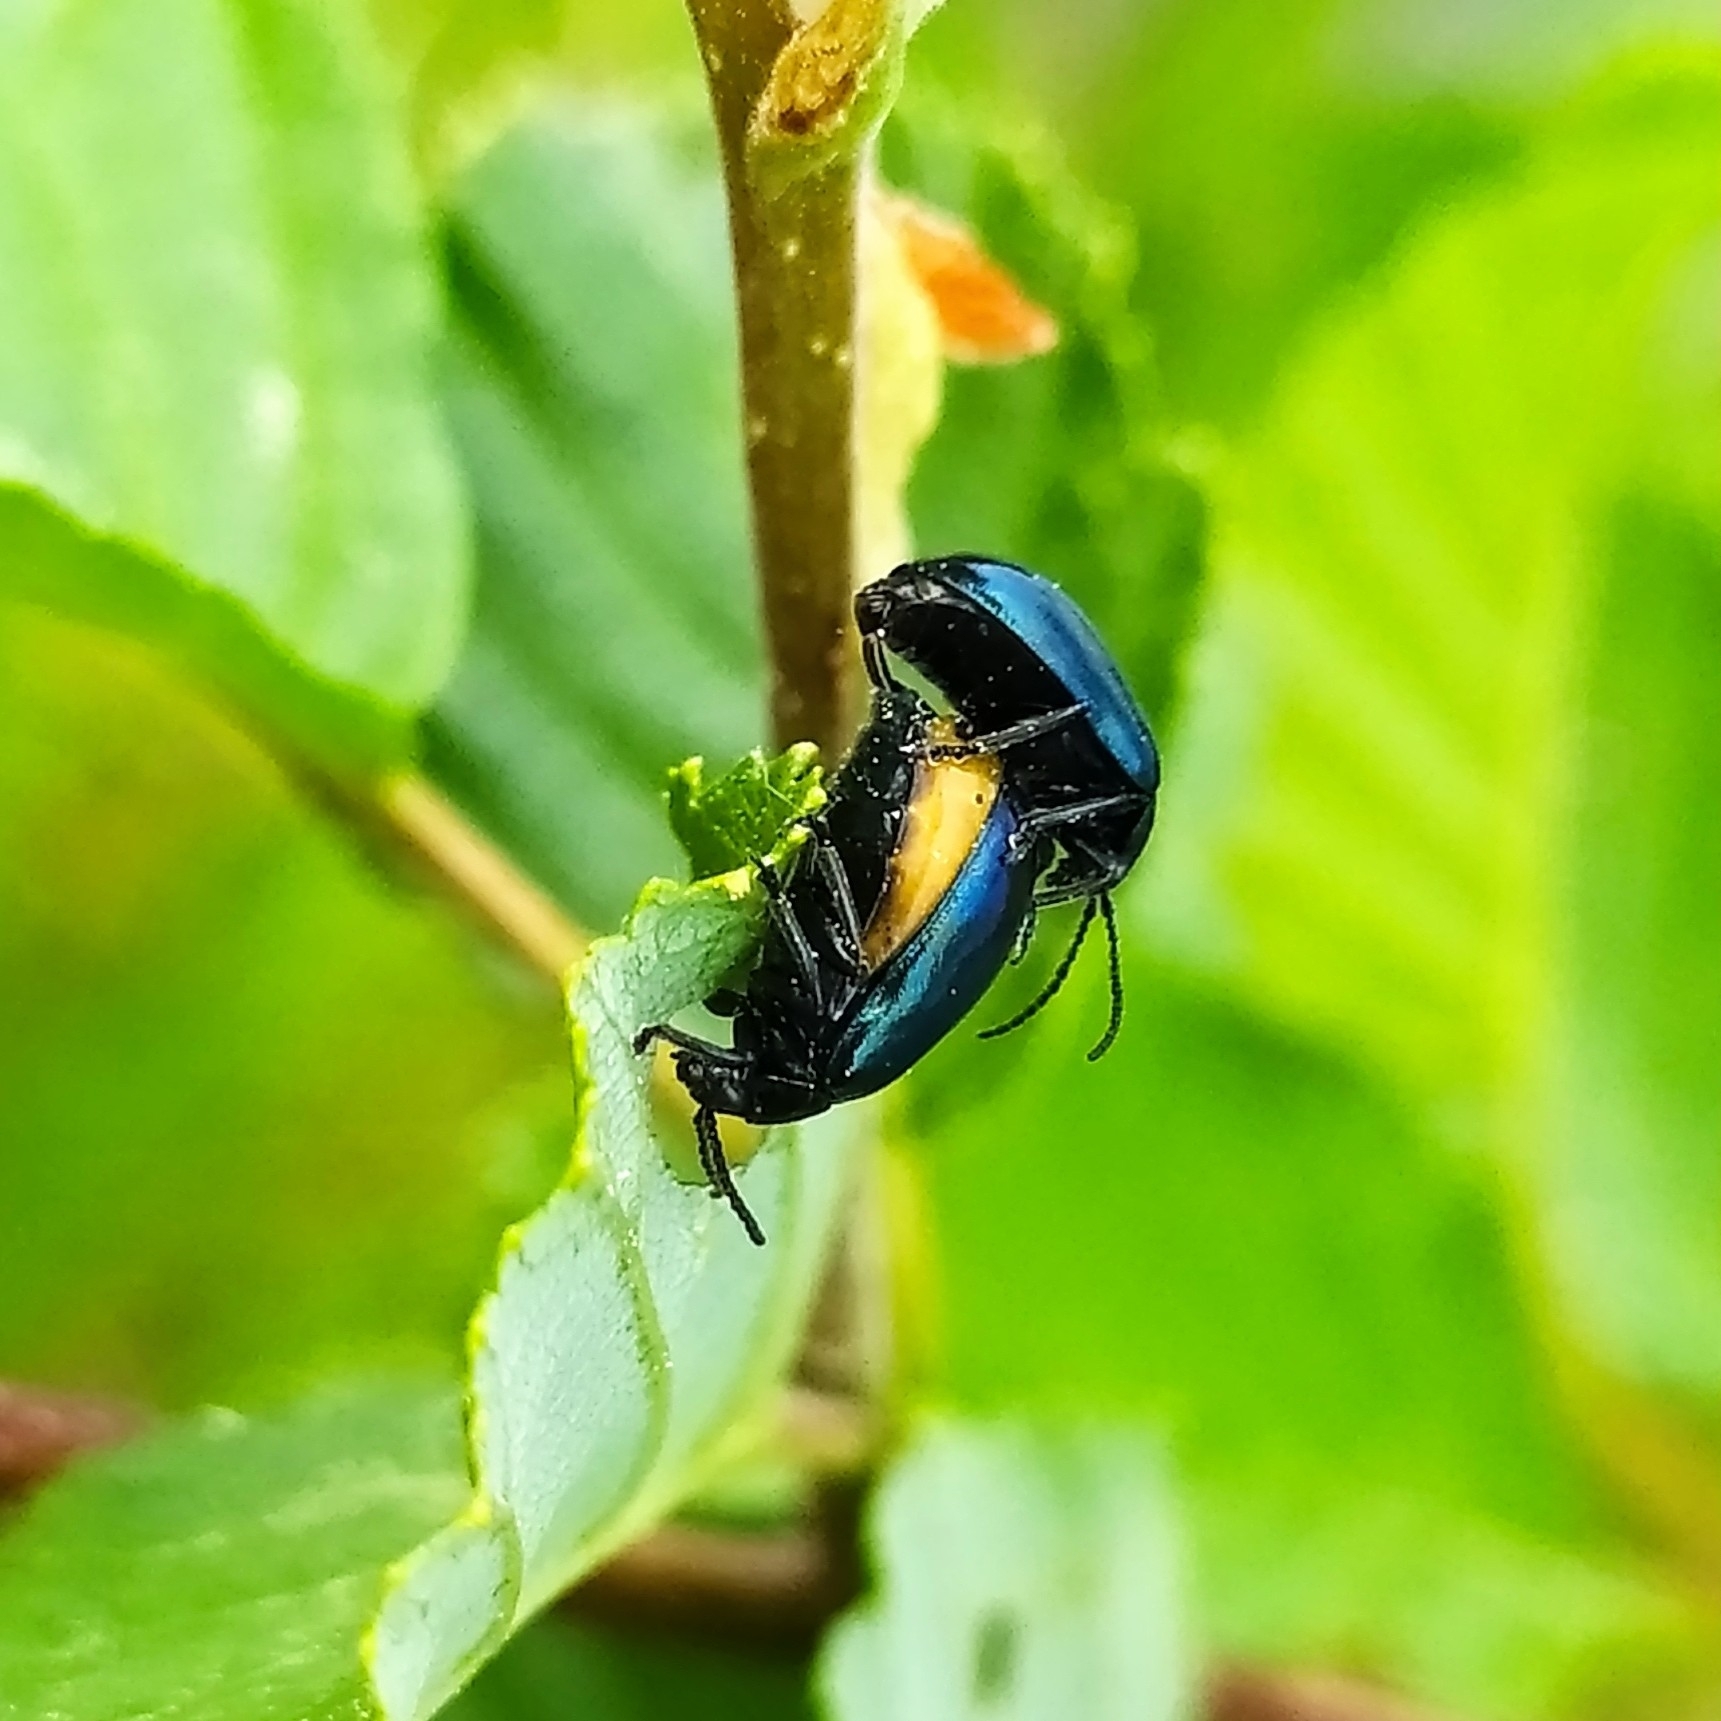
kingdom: Animalia
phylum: Arthropoda
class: Insecta
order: Coleoptera
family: Chrysomelidae
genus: Agelastica
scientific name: Agelastica alni
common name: Alder leaf beetle
